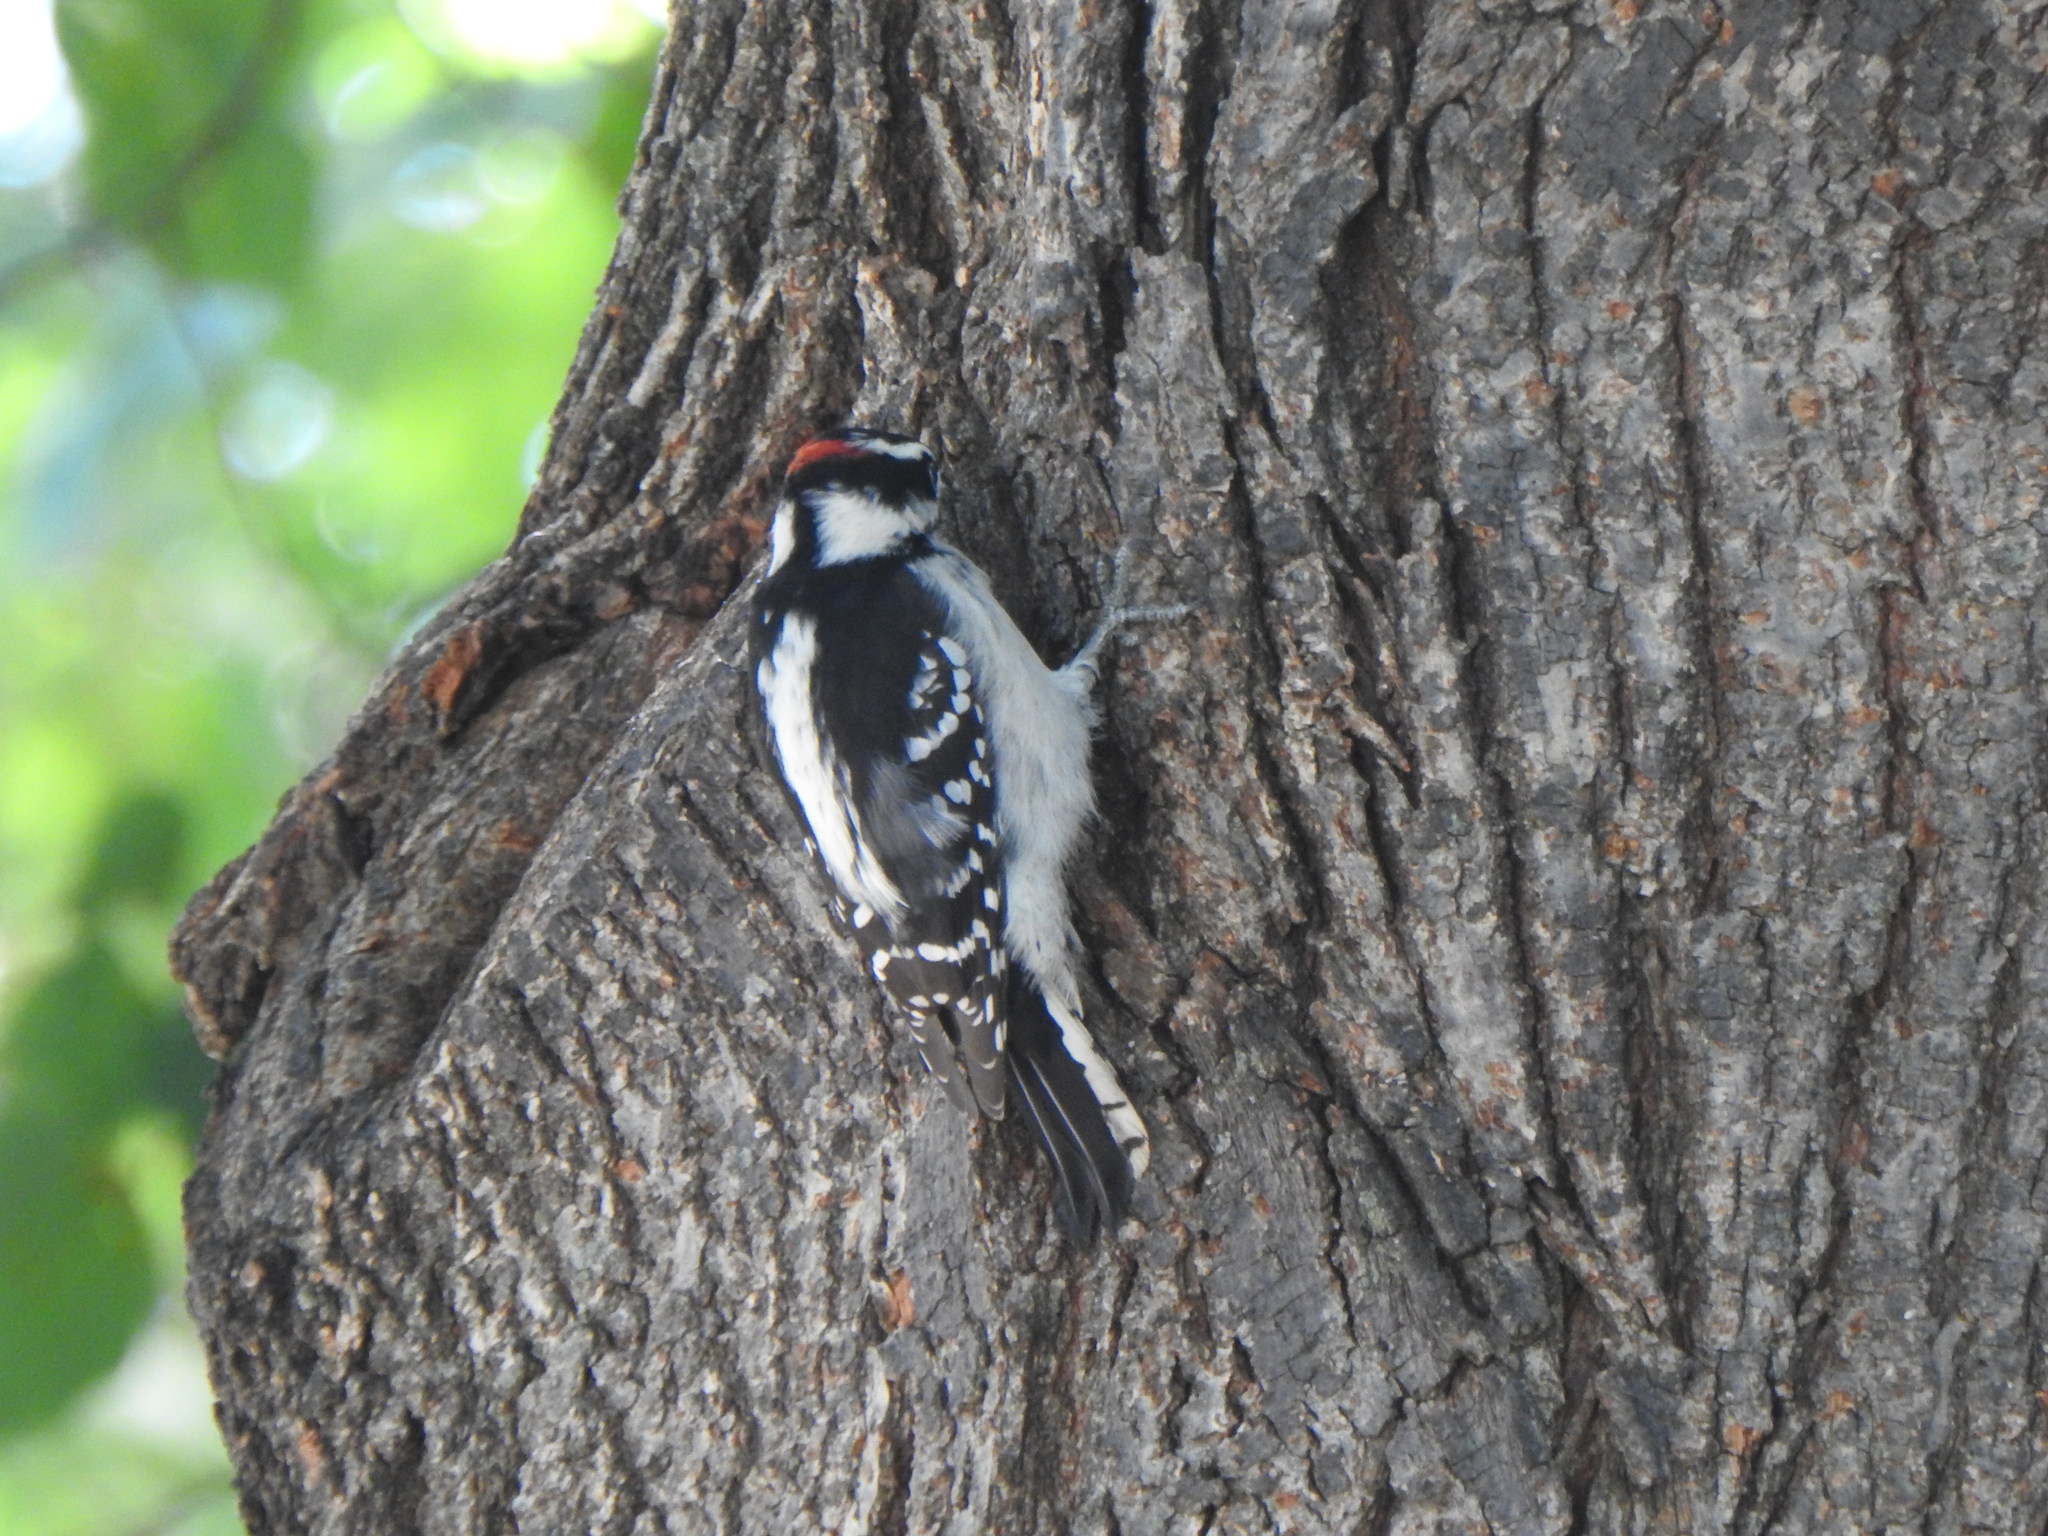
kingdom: Animalia
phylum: Chordata
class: Aves
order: Piciformes
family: Picidae
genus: Dryobates
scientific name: Dryobates pubescens
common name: Downy woodpecker
